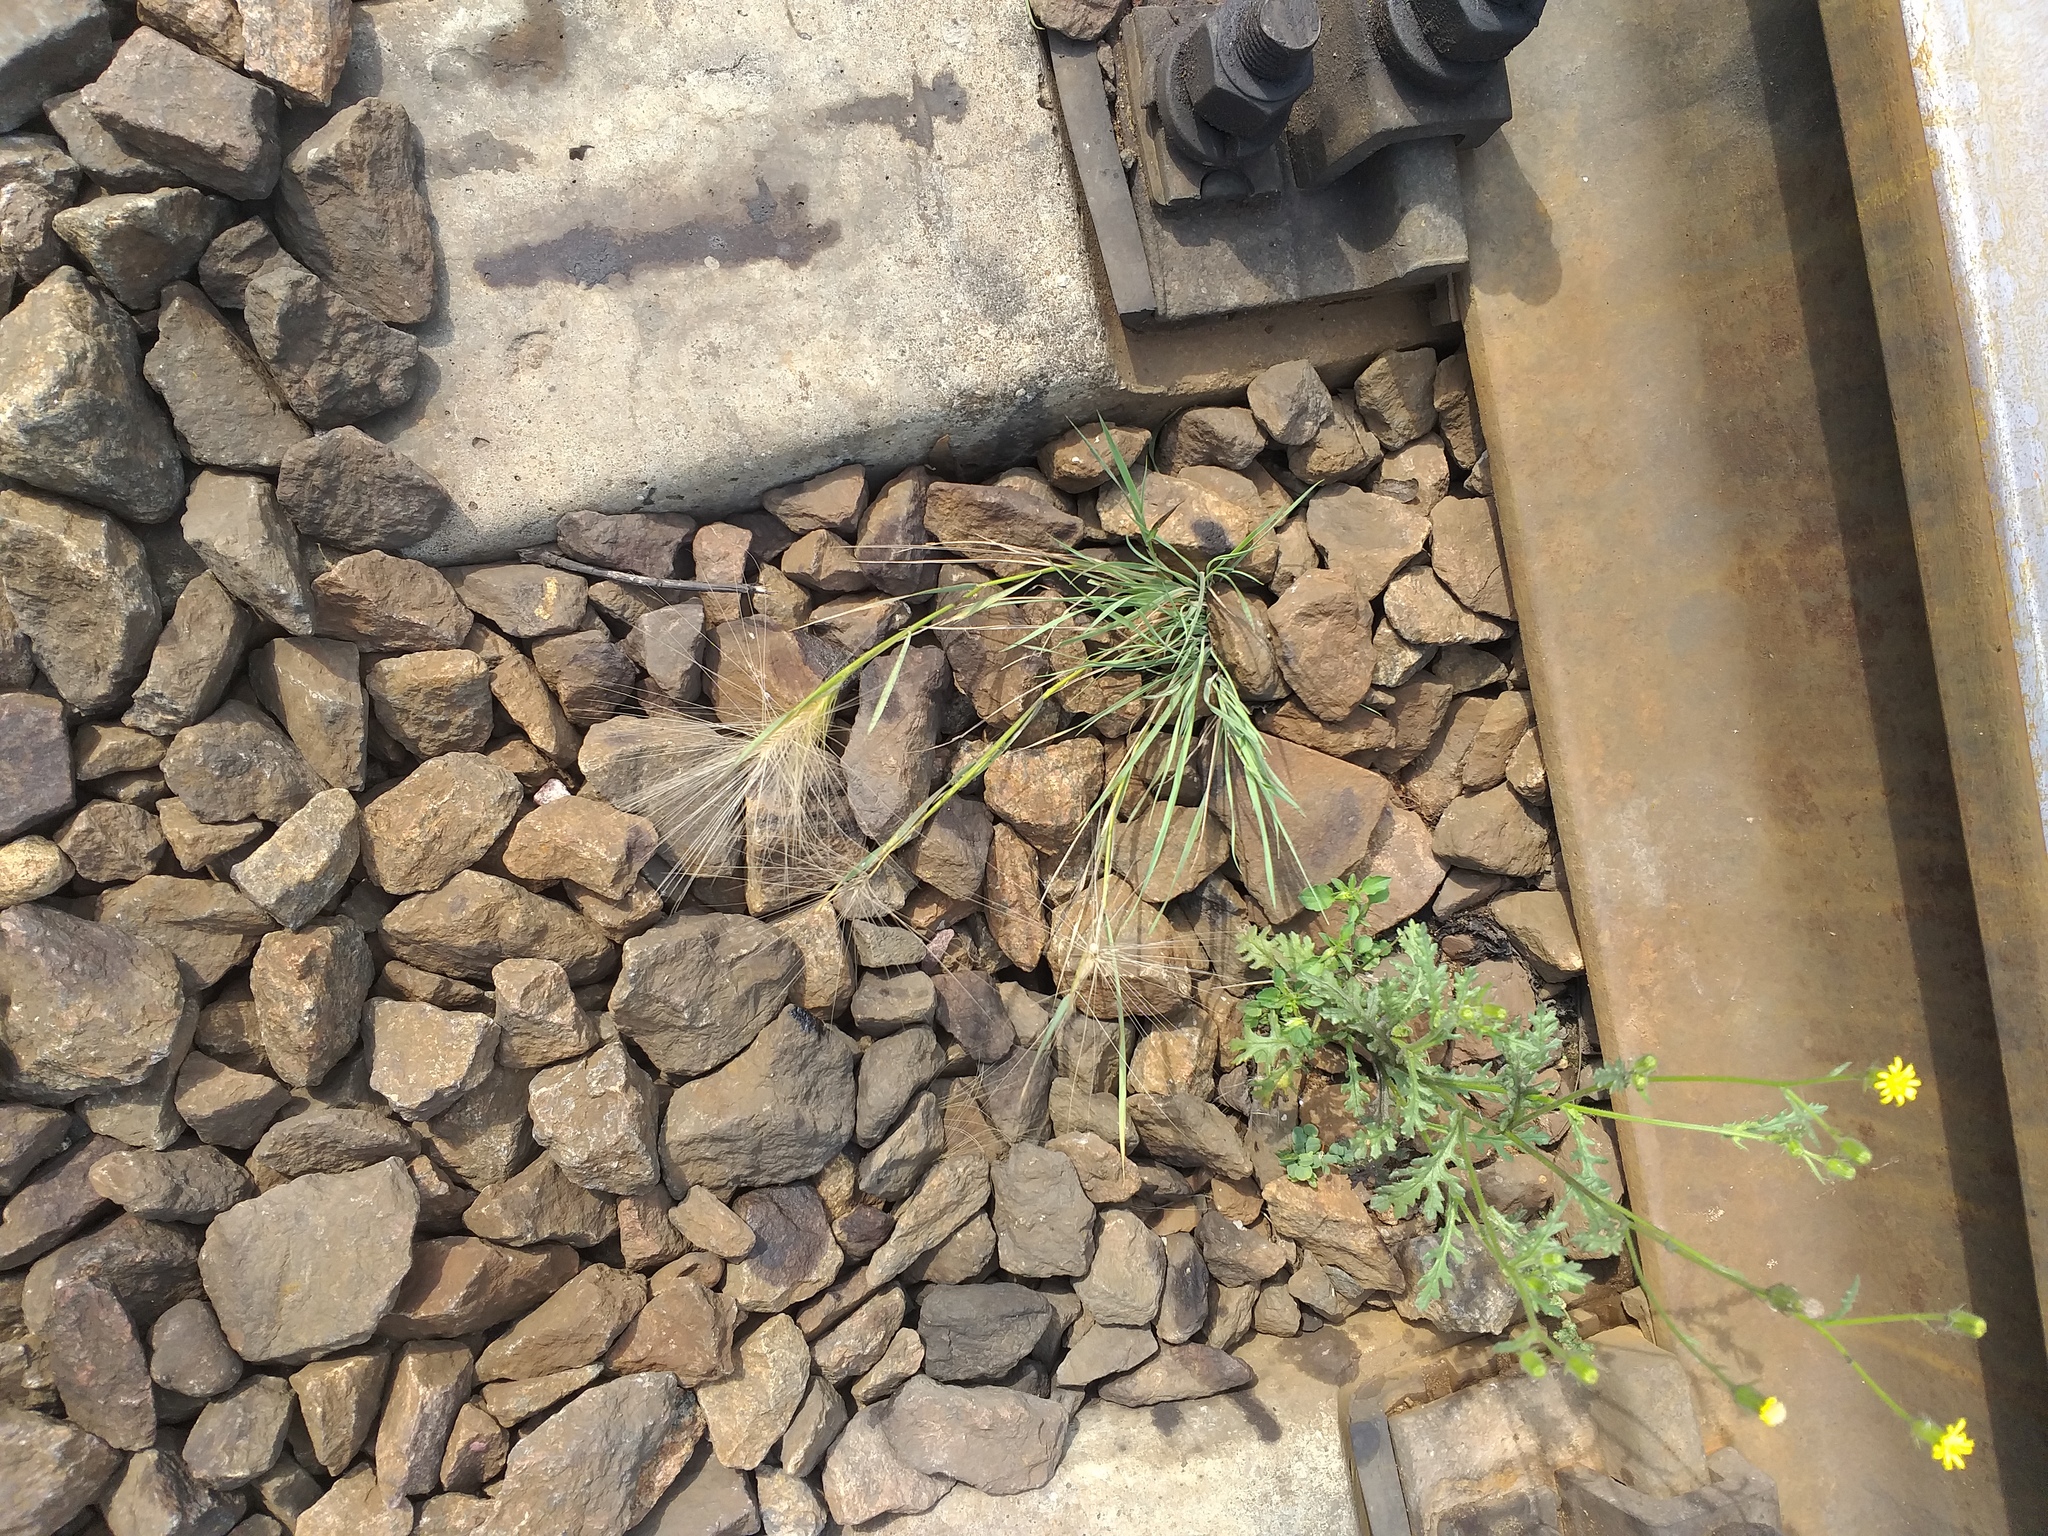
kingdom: Plantae
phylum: Tracheophyta
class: Liliopsida
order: Poales
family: Poaceae
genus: Hordeum
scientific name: Hordeum jubatum
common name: Foxtail barley
